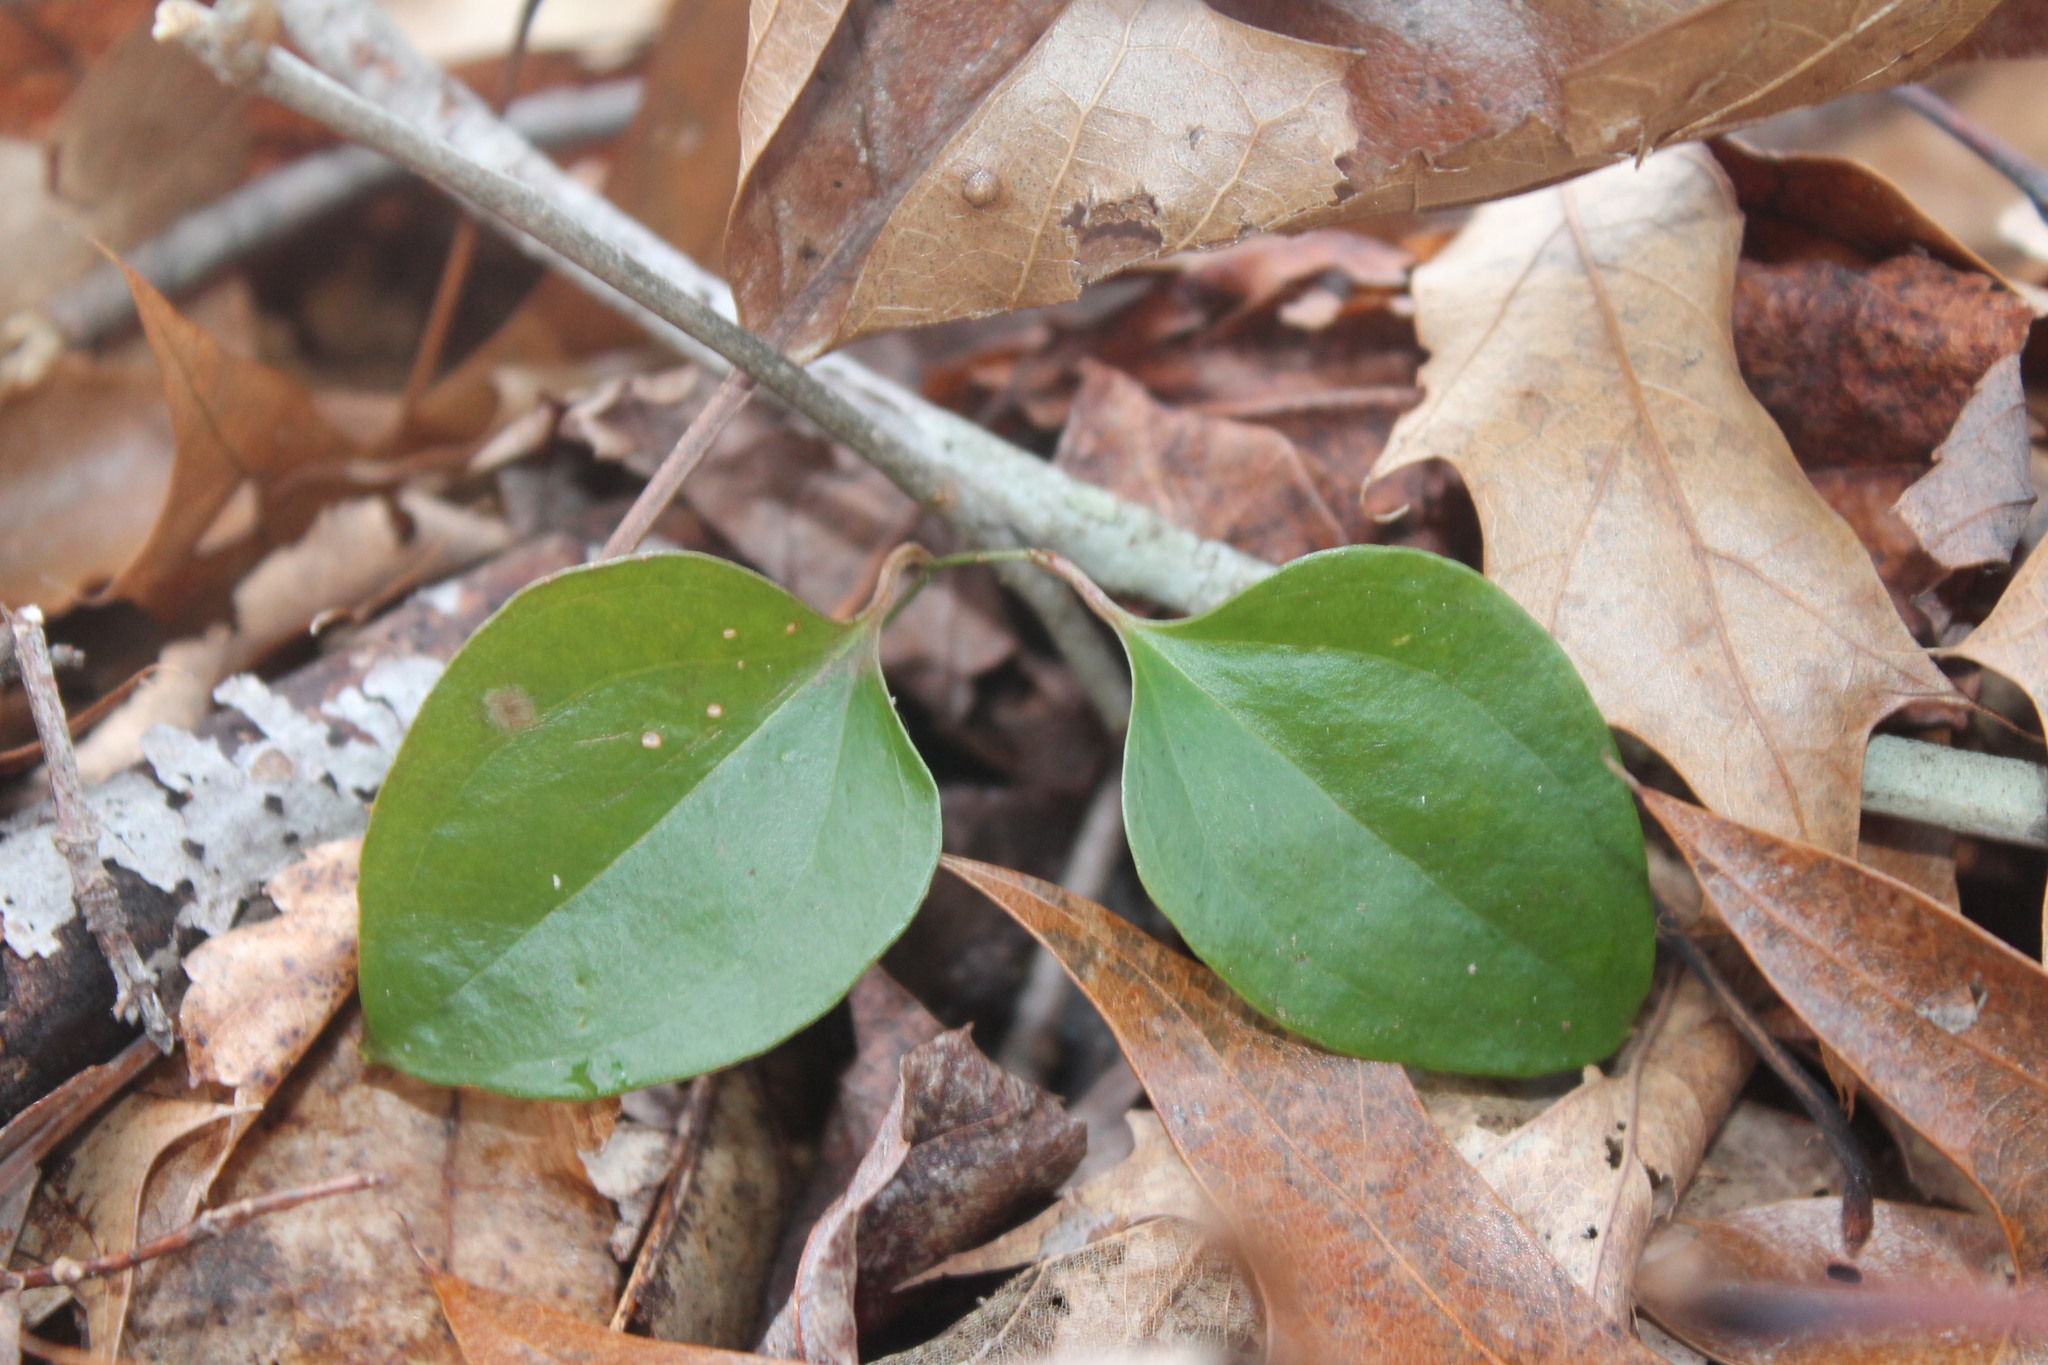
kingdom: Plantae
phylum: Tracheophyta
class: Liliopsida
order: Liliales
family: Smilacaceae
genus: Smilax
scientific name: Smilax glauca
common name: Cat greenbrier
